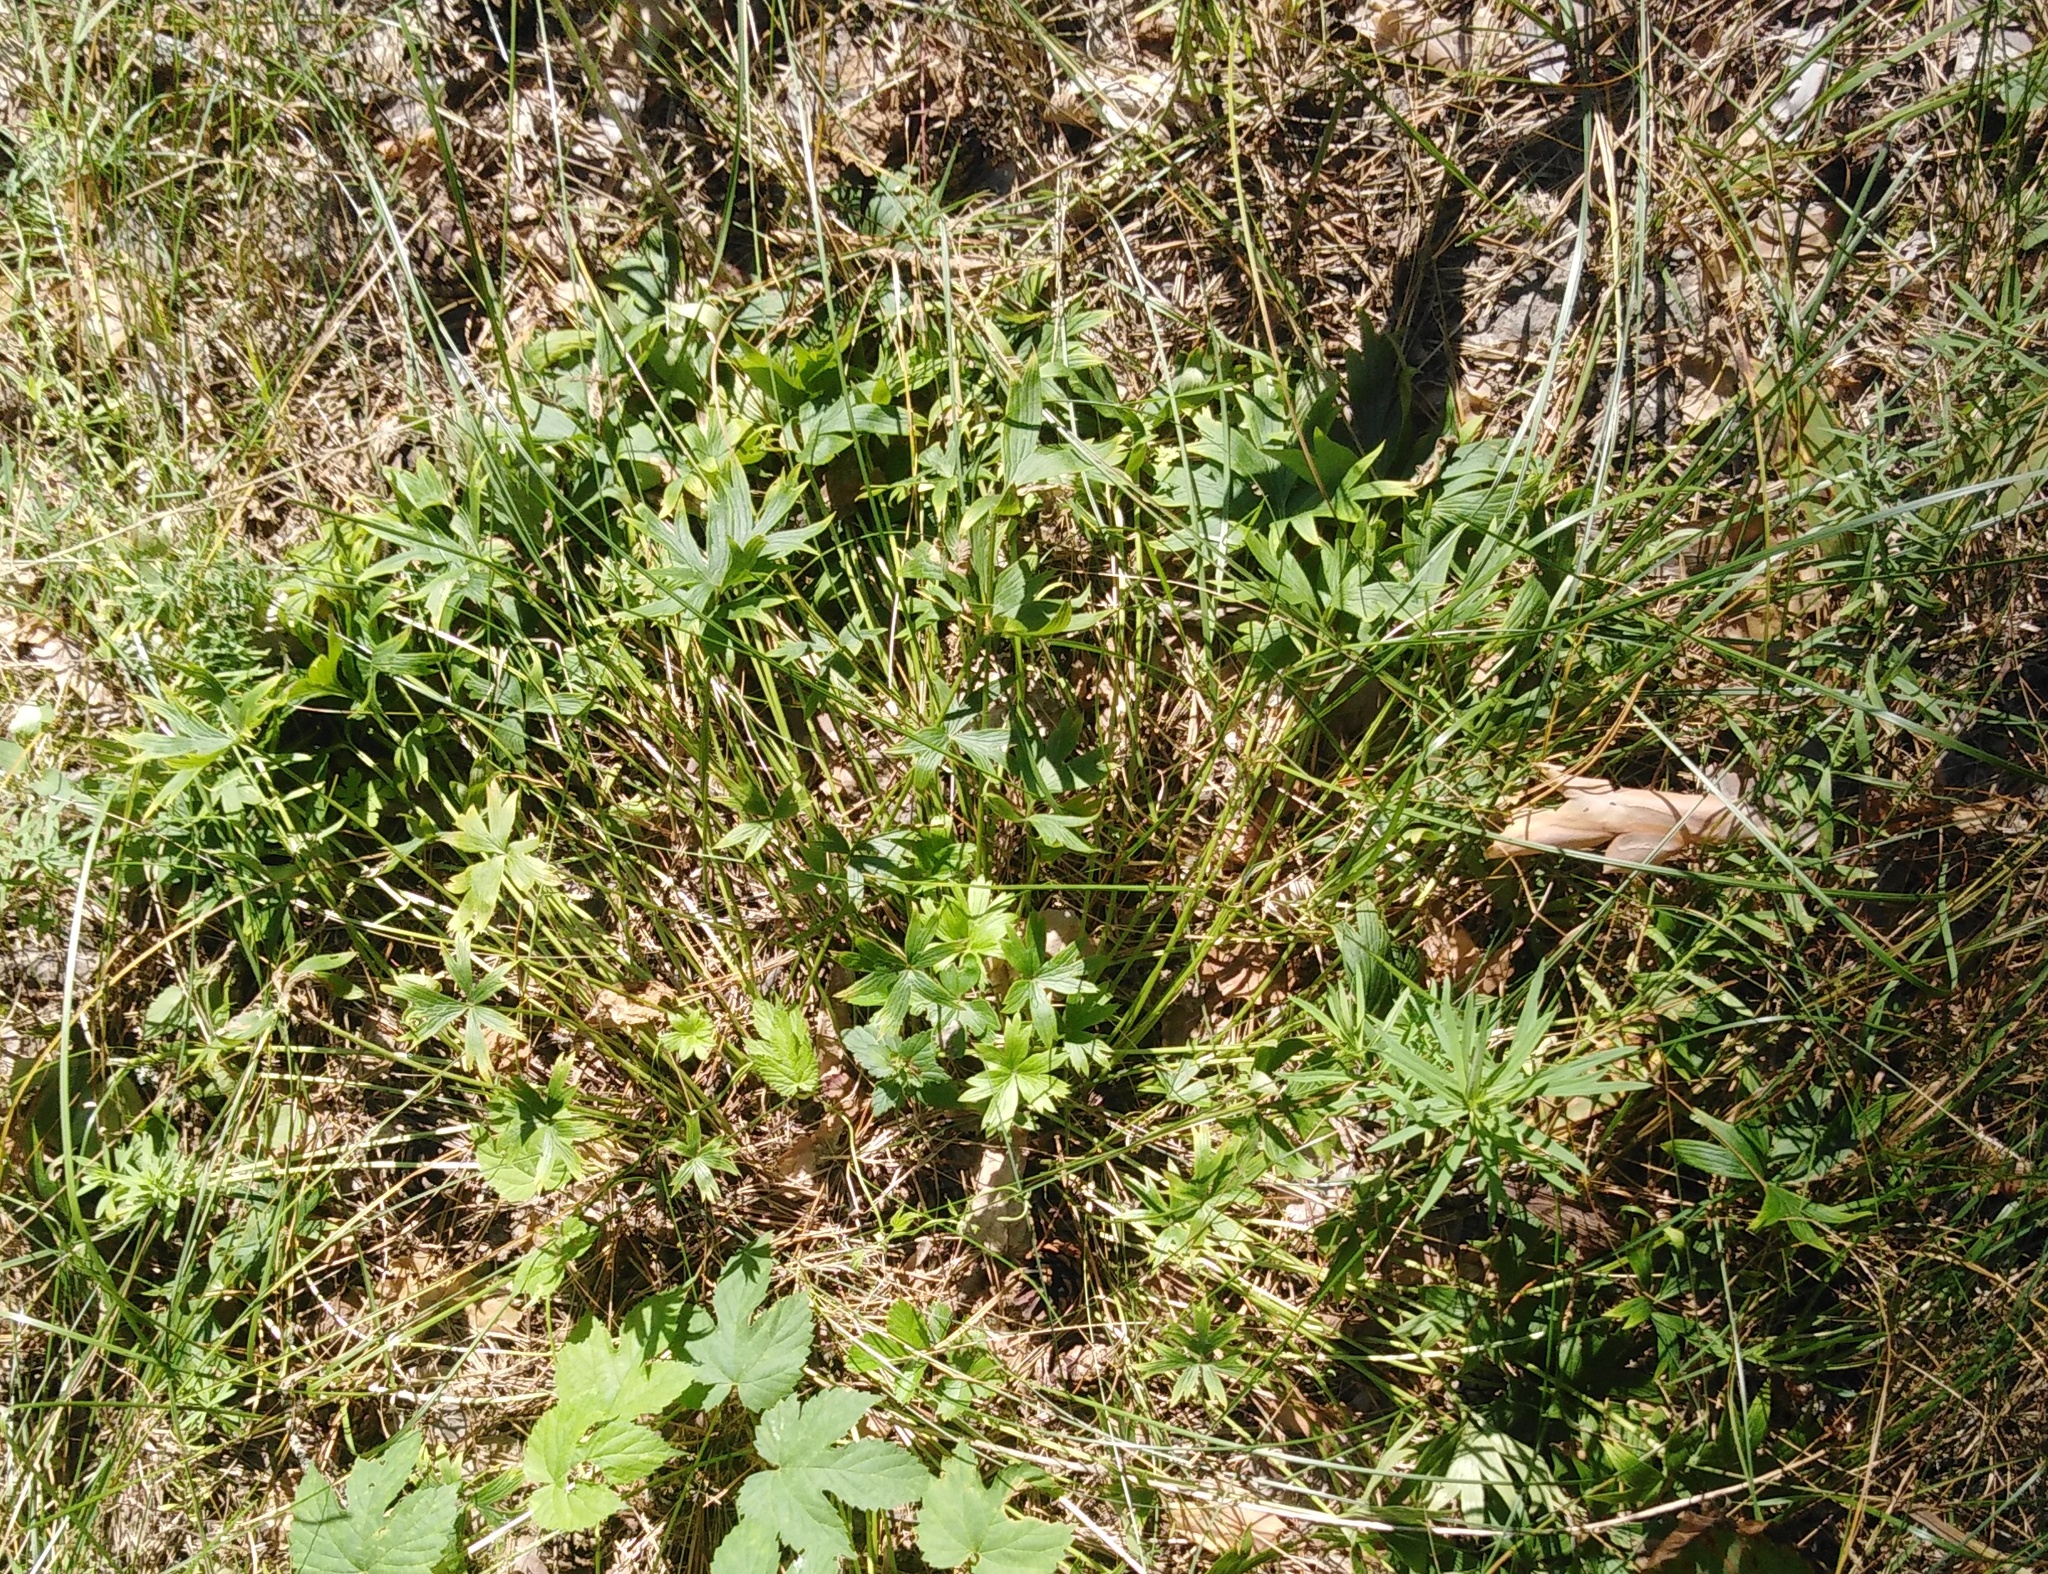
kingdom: Plantae
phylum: Tracheophyta
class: Magnoliopsida
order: Ranunculales
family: Ranunculaceae
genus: Pulsatilla
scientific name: Pulsatilla patens
